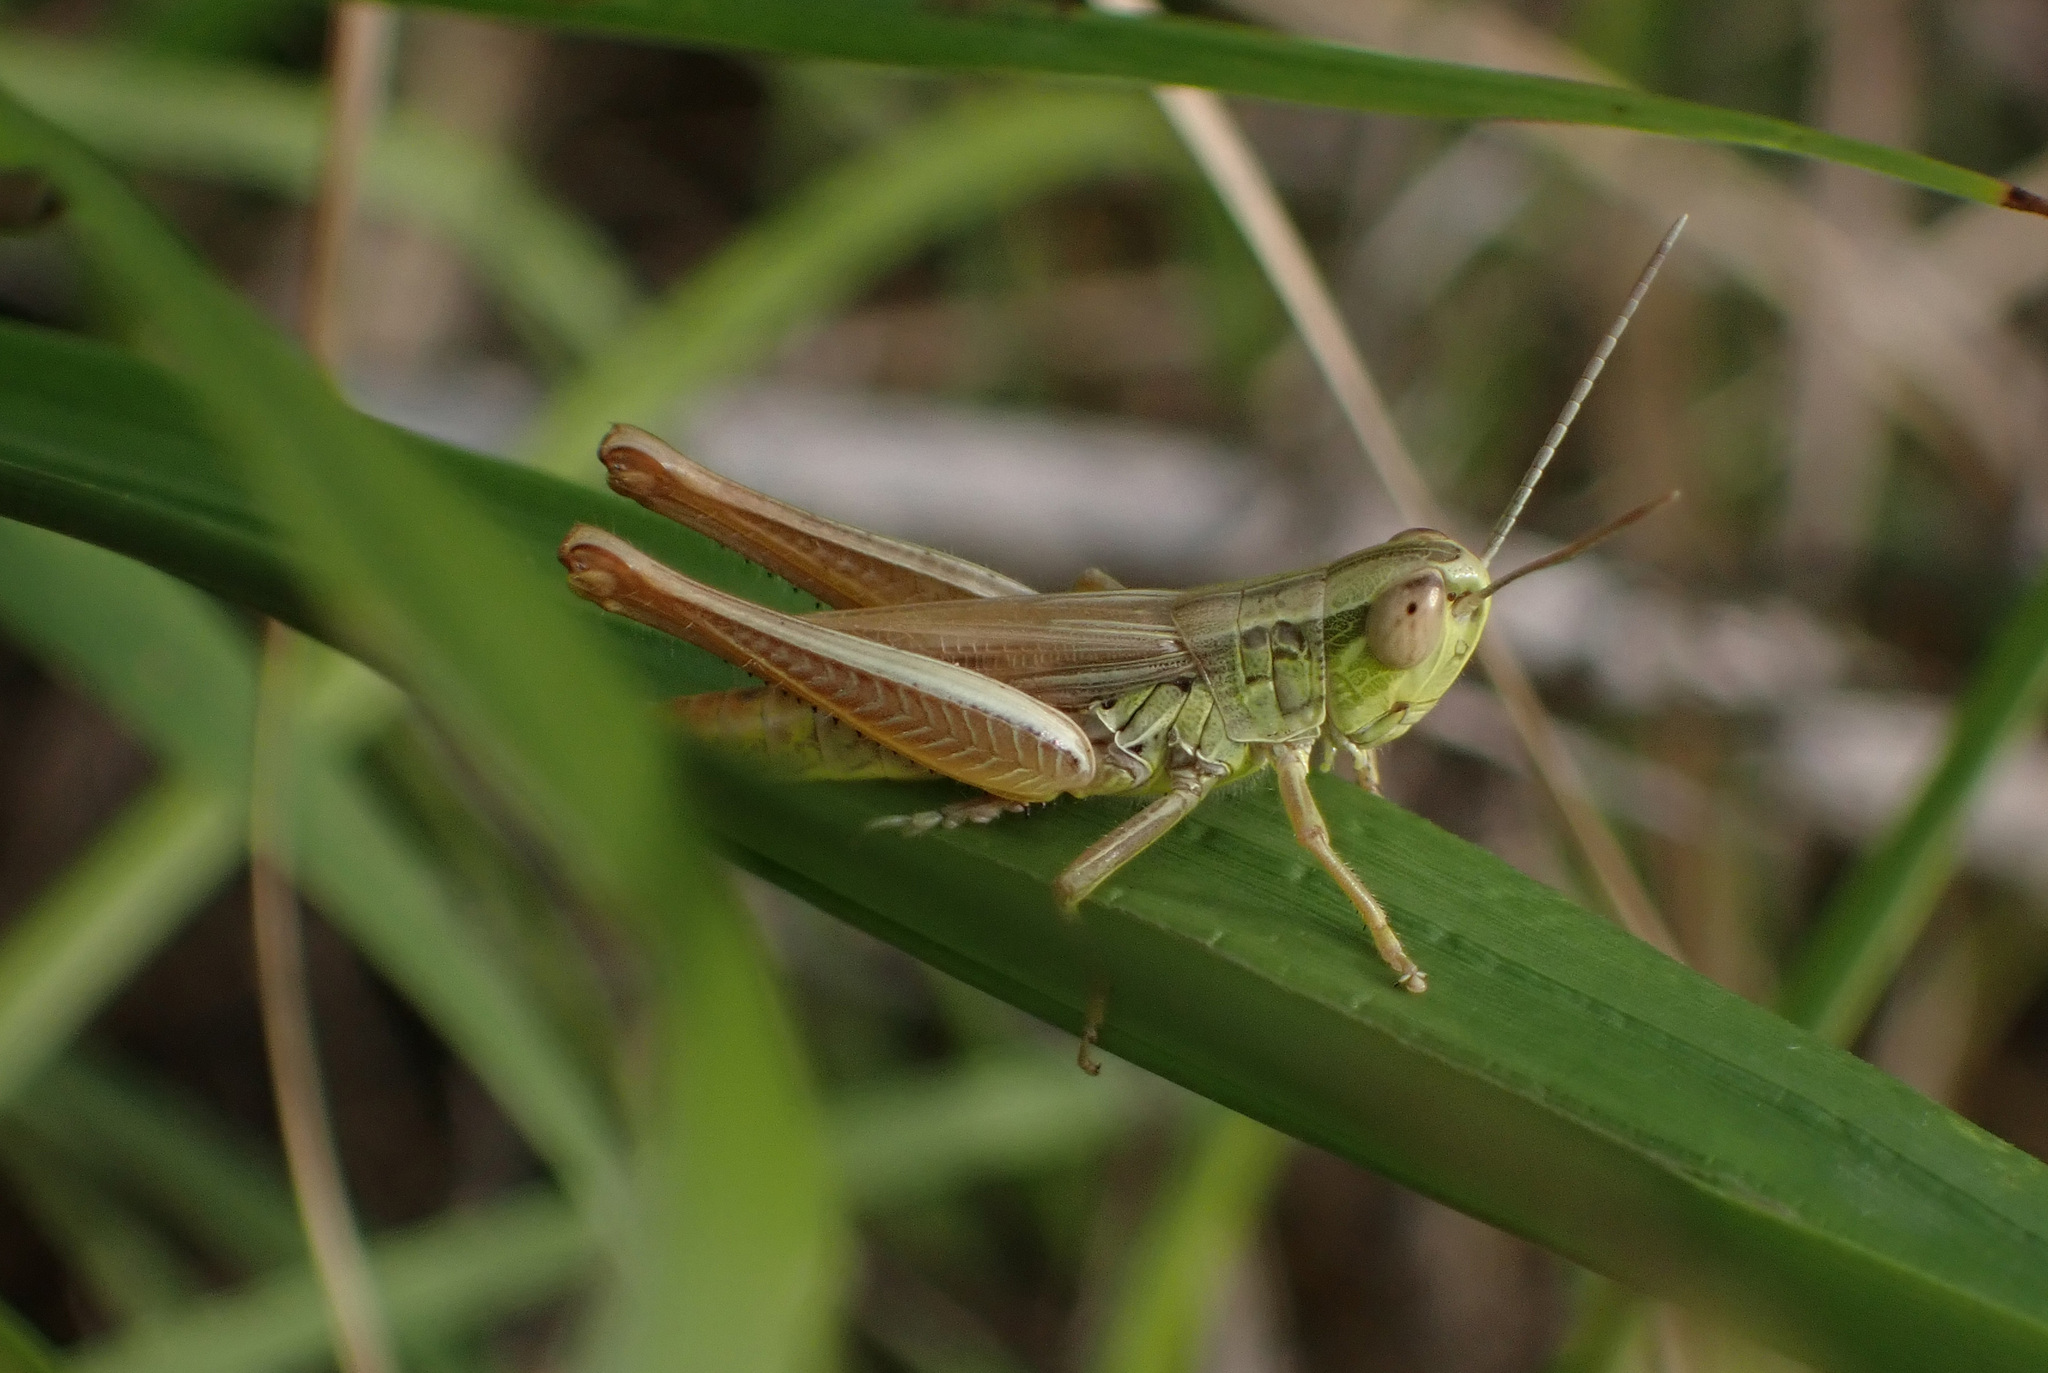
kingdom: Animalia
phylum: Arthropoda
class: Insecta
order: Orthoptera
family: Acrididae
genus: Euchorthippus
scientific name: Euchorthippus declivus
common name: Common straw grasshopper
